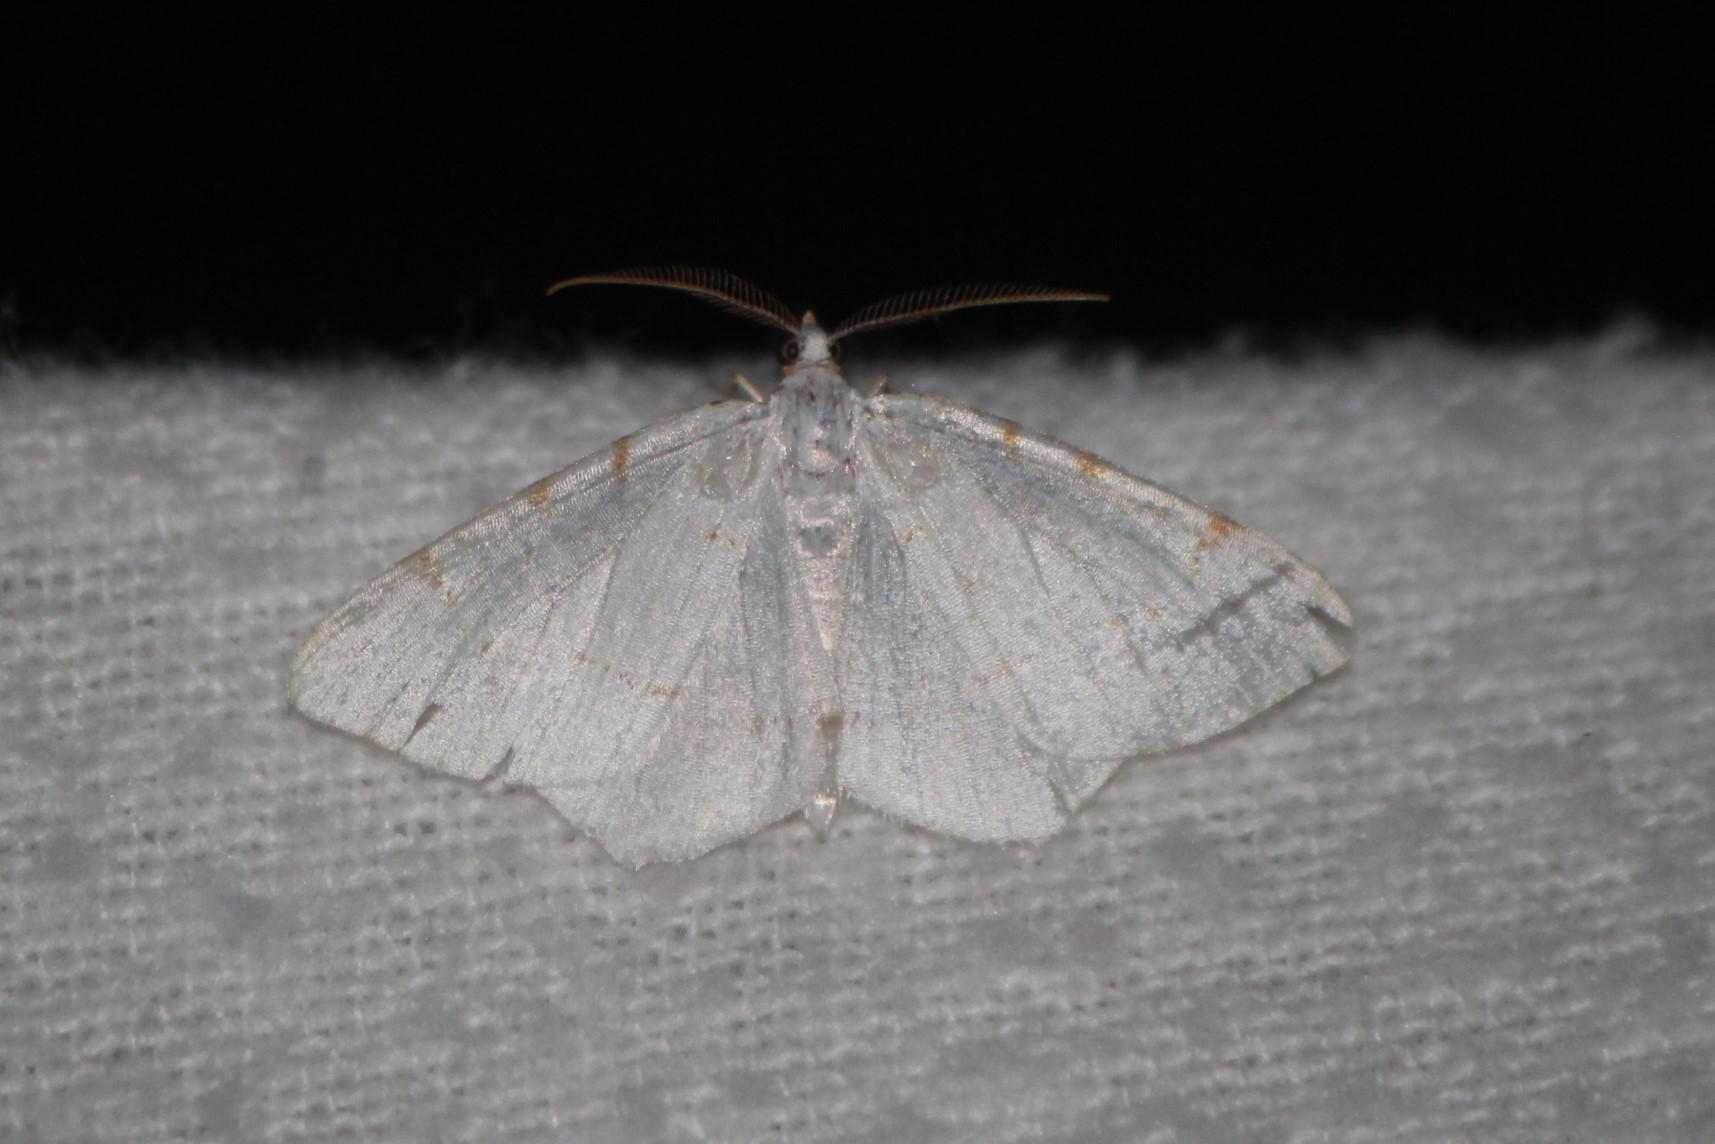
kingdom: Animalia
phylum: Arthropoda
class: Insecta
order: Lepidoptera
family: Geometridae
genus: Macaria
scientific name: Macaria pustularia
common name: Lesser maple spanworm moth
